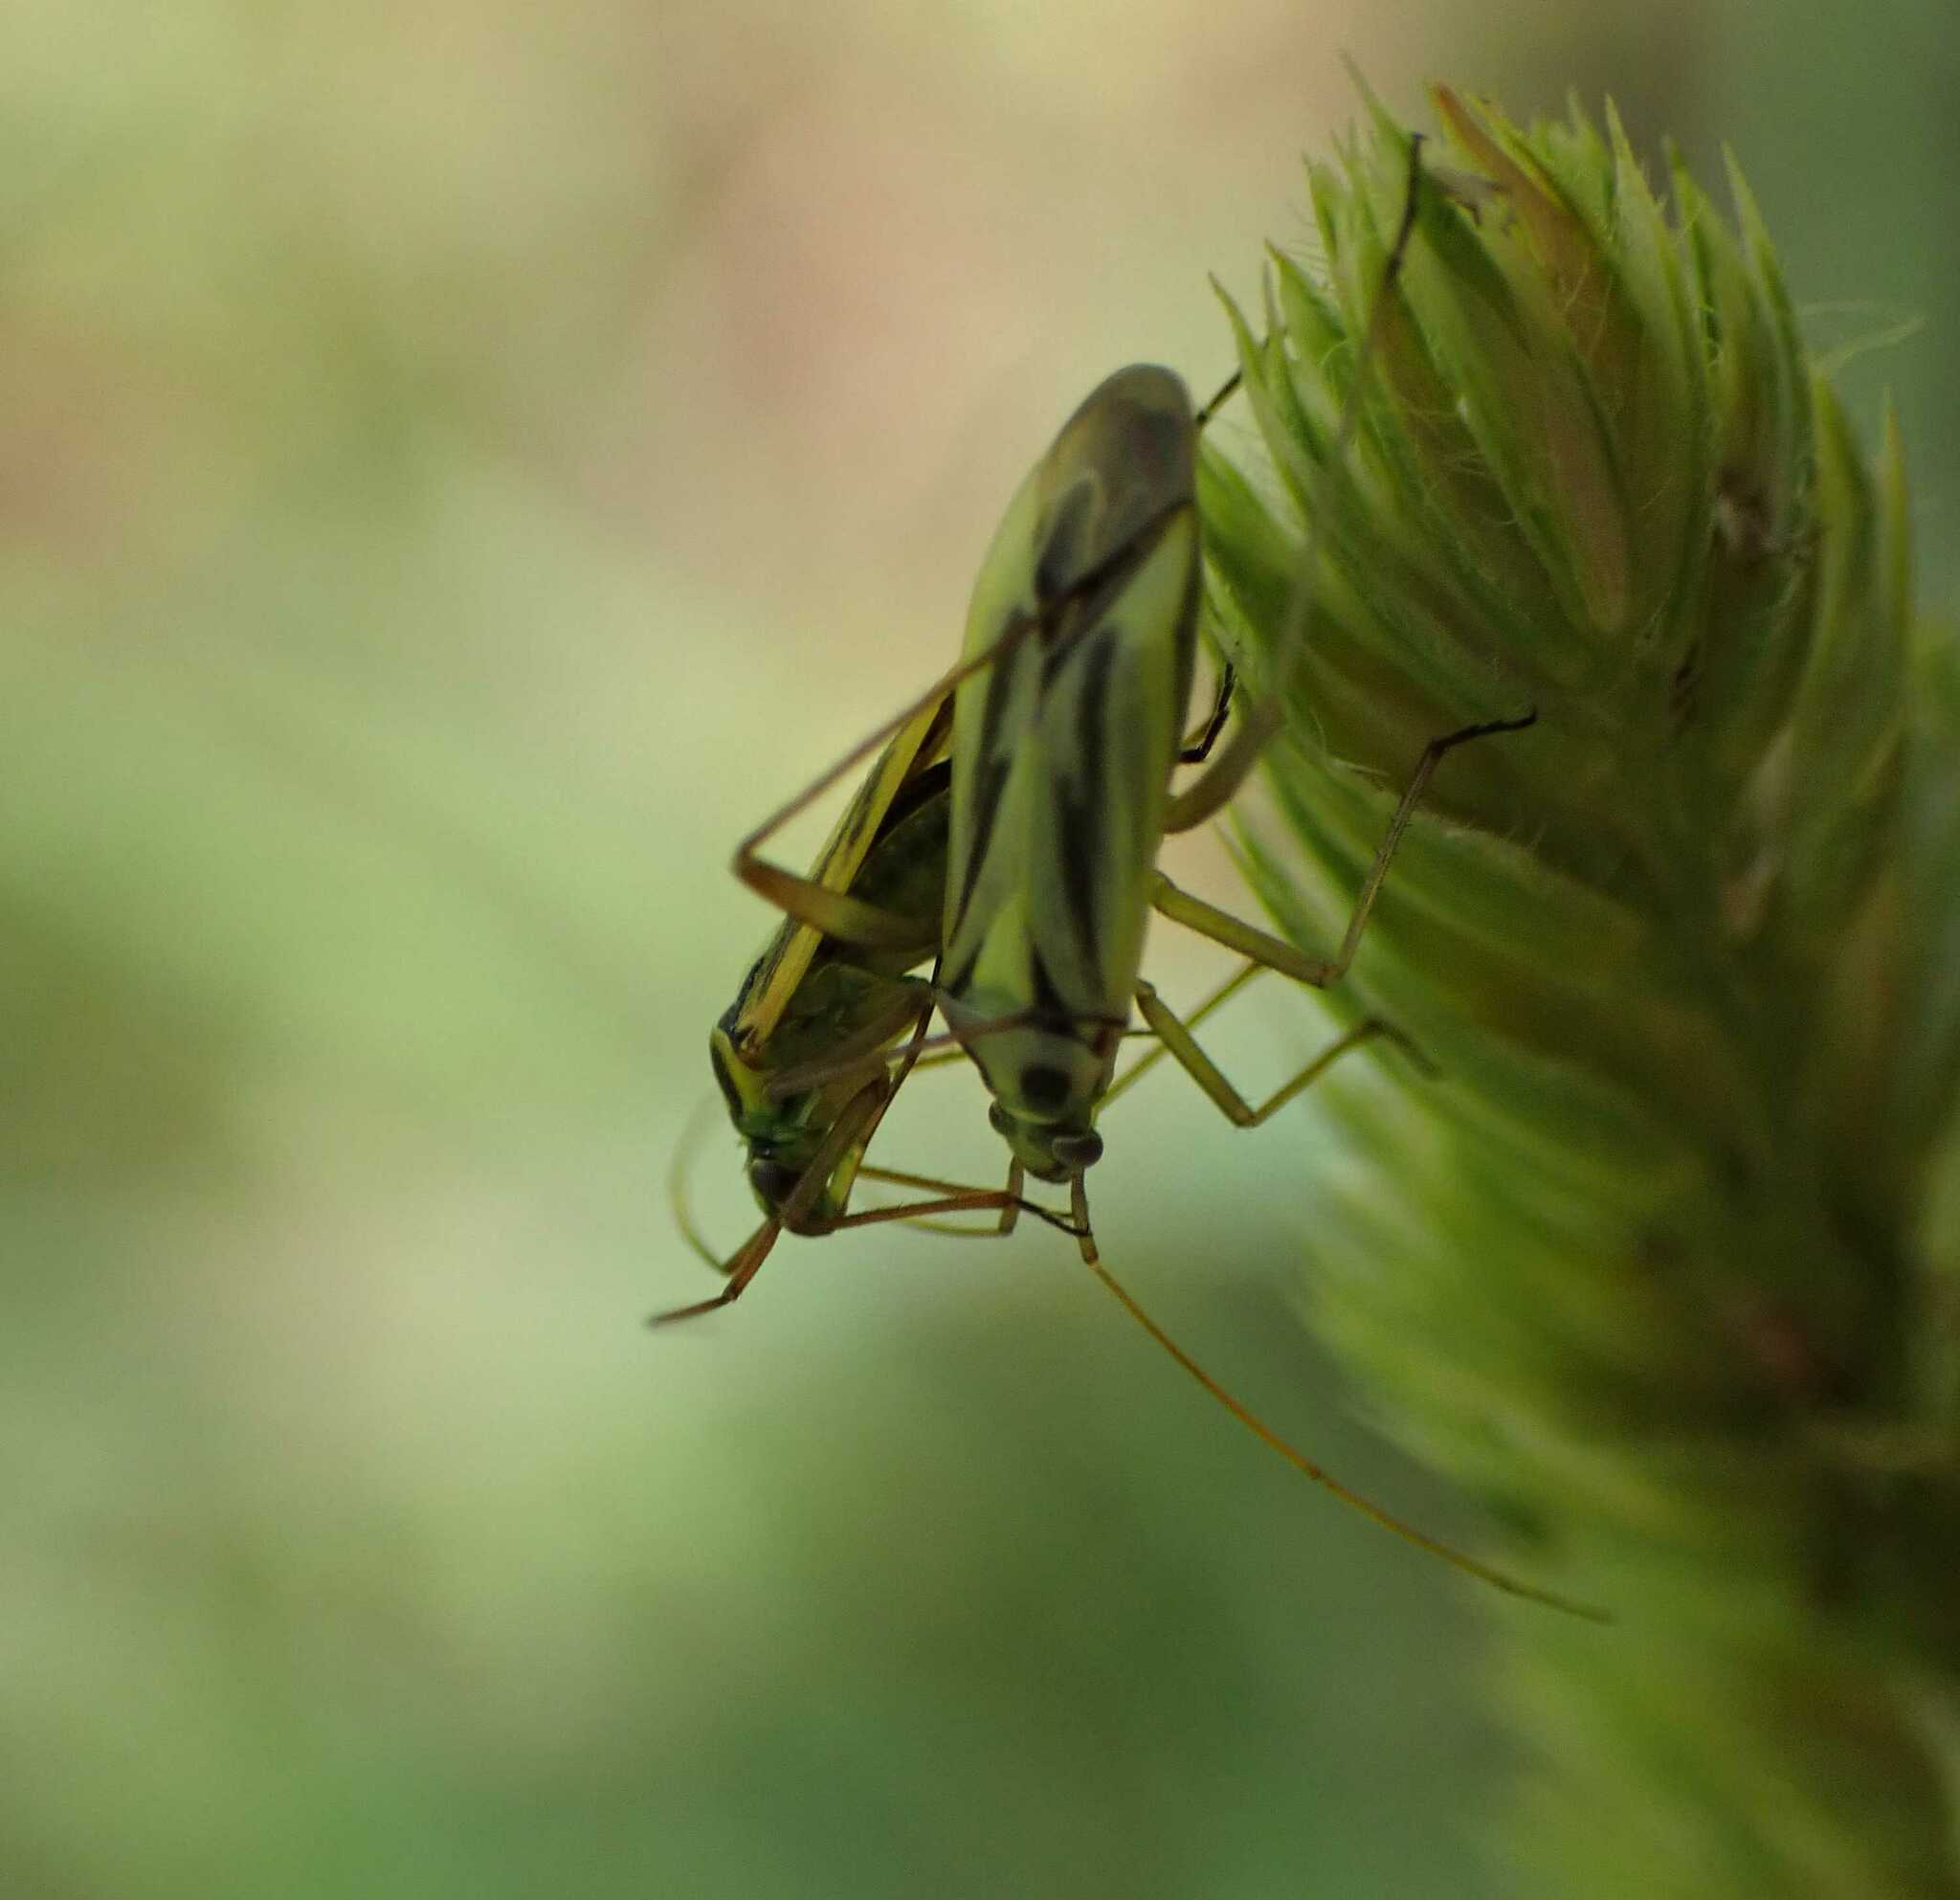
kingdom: Animalia
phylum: Arthropoda
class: Insecta
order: Hemiptera
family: Miridae
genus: Stenotus
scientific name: Stenotus binotatus
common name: Plant bug
